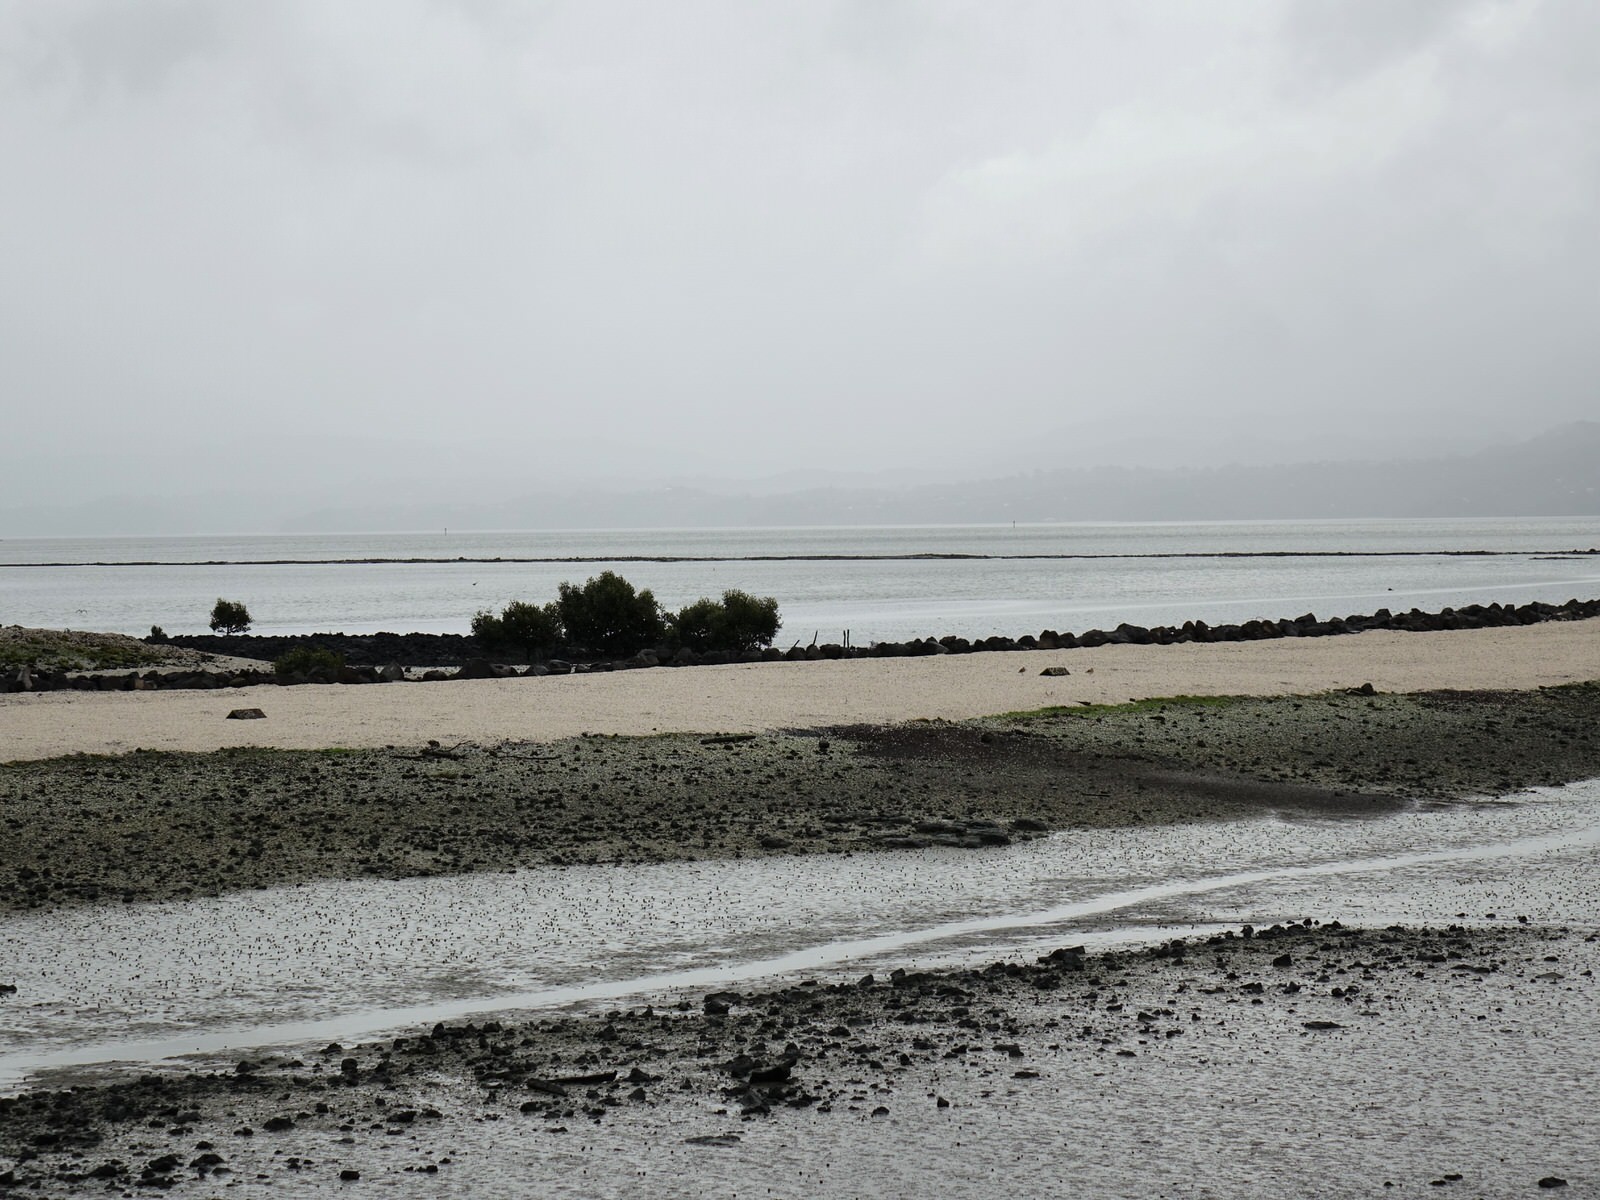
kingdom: Animalia
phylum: Chordata
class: Aves
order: Charadriiformes
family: Charadriidae
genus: Anarhynchus
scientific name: Anarhynchus
